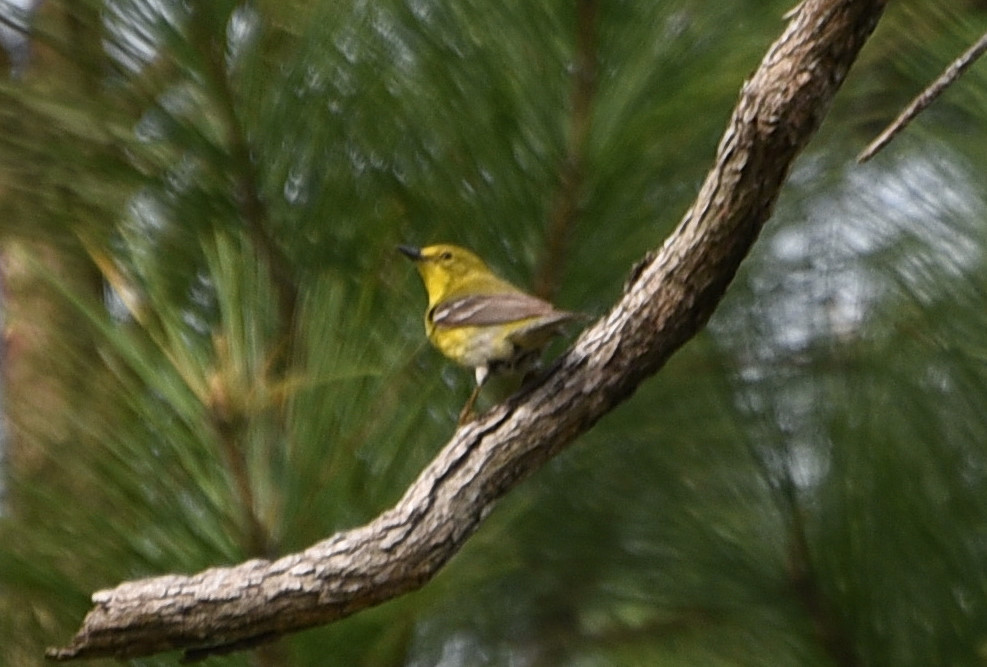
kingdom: Animalia
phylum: Chordata
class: Aves
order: Passeriformes
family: Parulidae
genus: Setophaga
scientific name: Setophaga pinus
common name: Pine warbler
